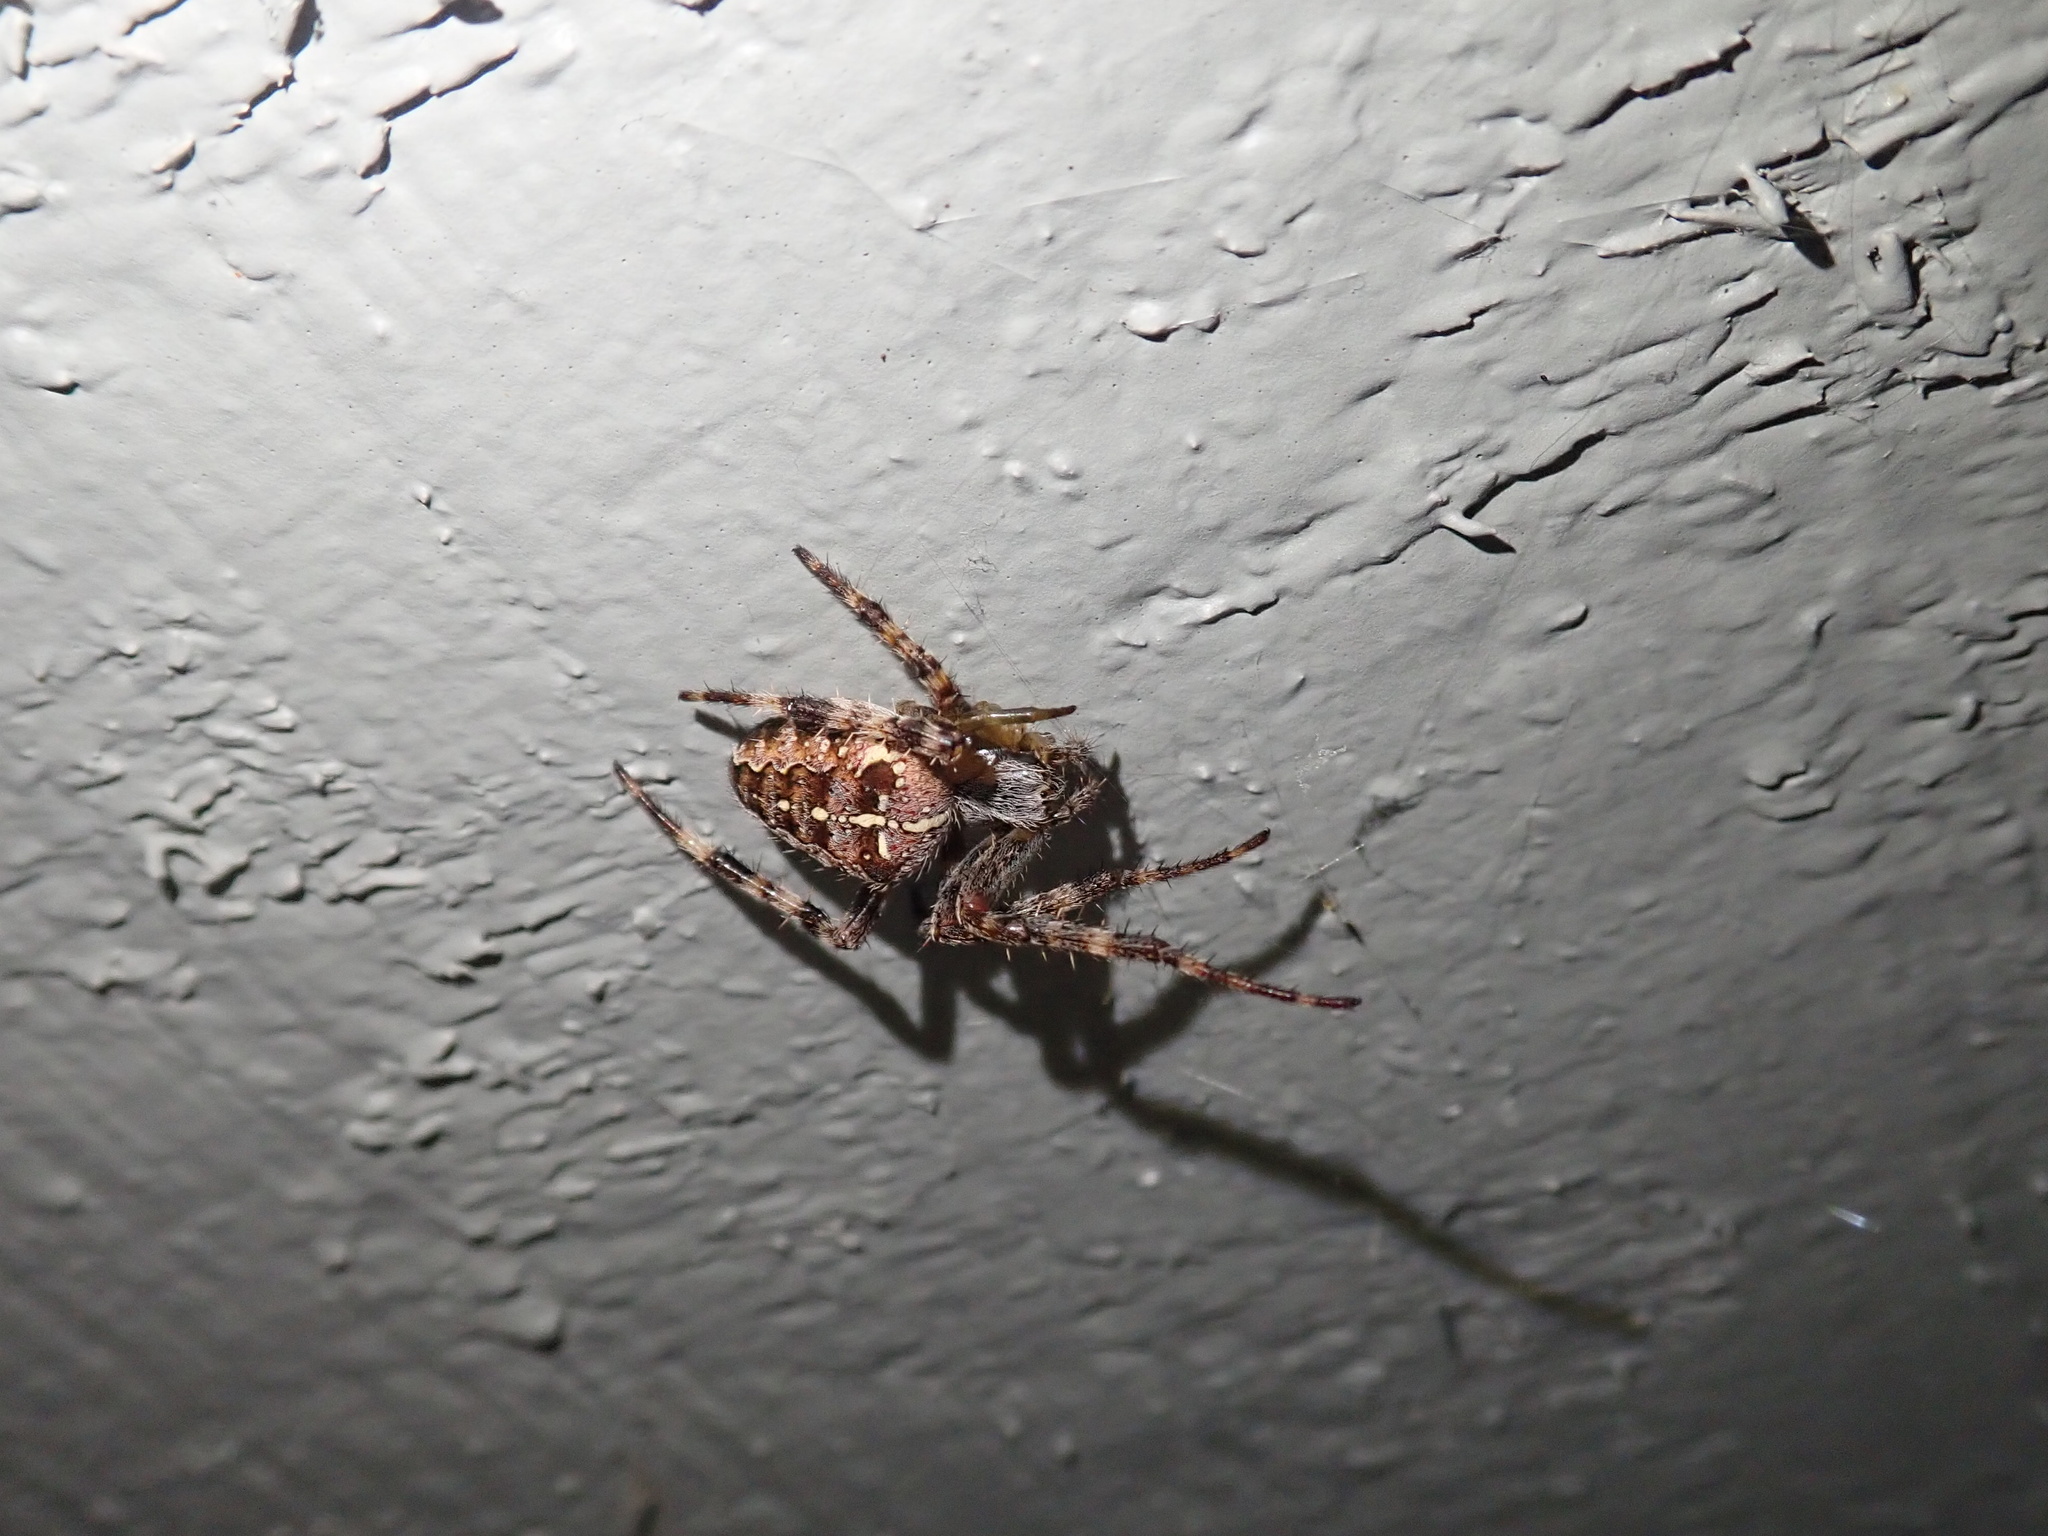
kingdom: Animalia
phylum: Arthropoda
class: Arachnida
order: Araneae
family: Araneidae
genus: Araneus
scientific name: Araneus diadematus
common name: Cross orbweaver
